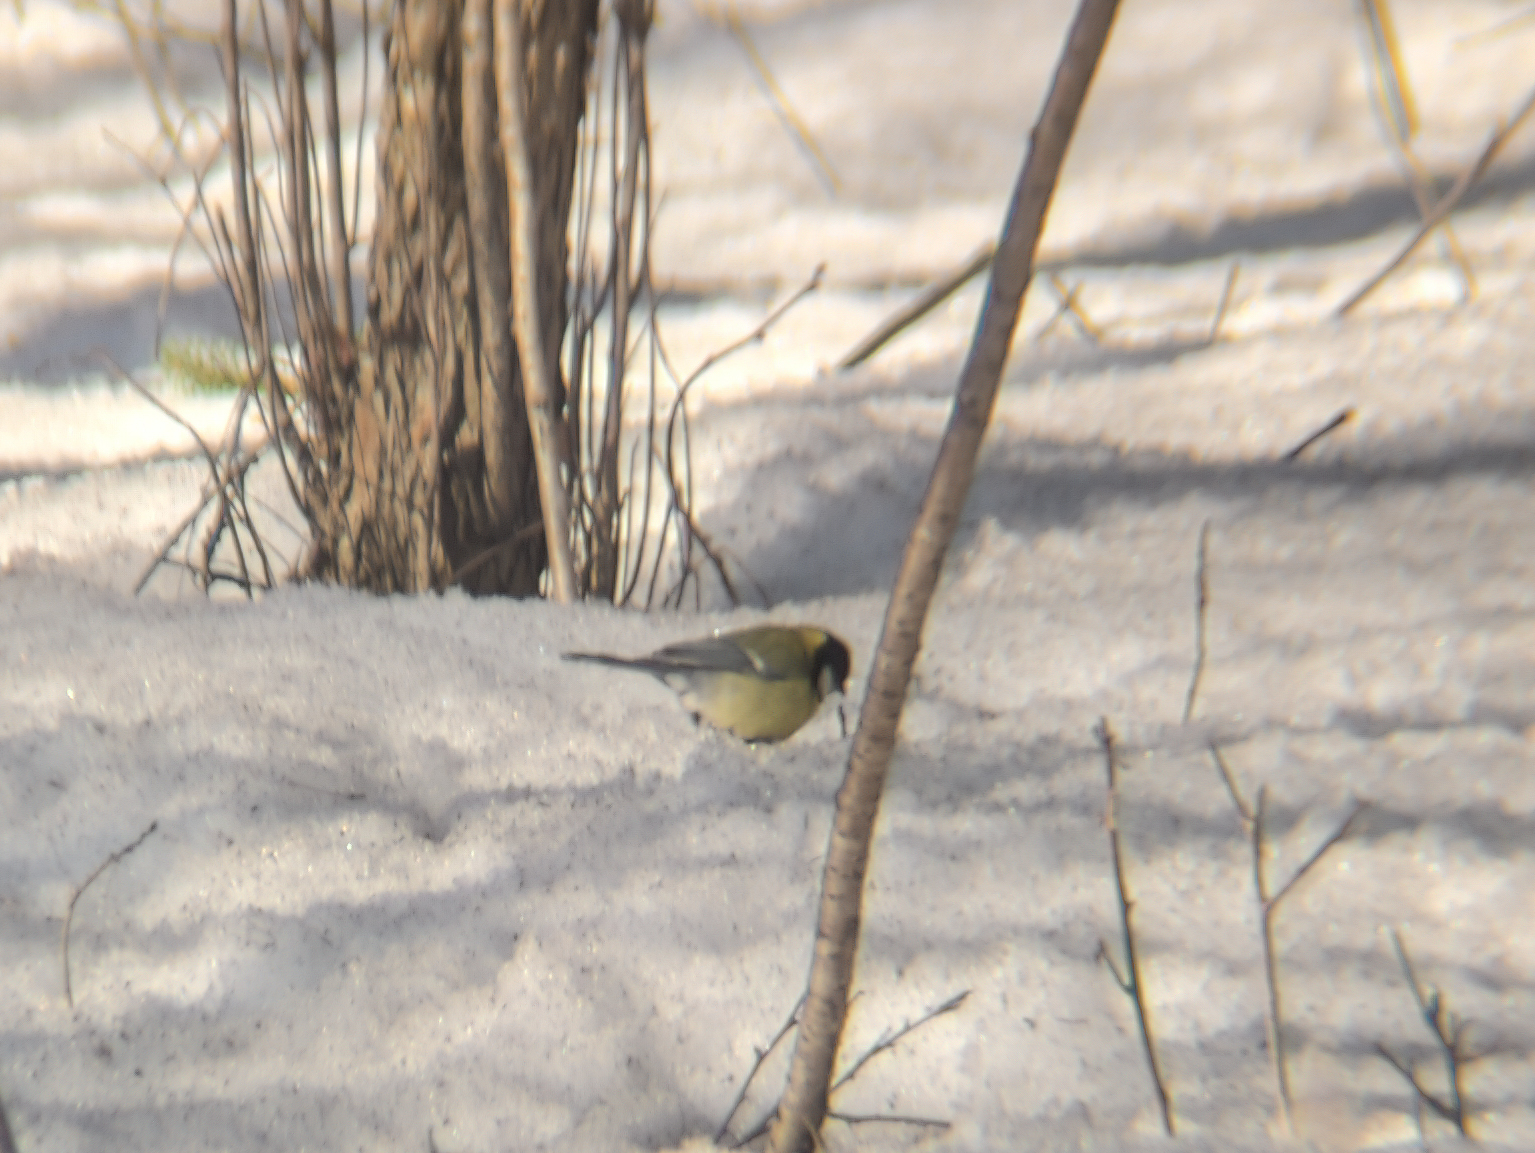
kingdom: Animalia
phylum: Chordata
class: Aves
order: Passeriformes
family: Paridae
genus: Parus
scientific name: Parus major
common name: Great tit
